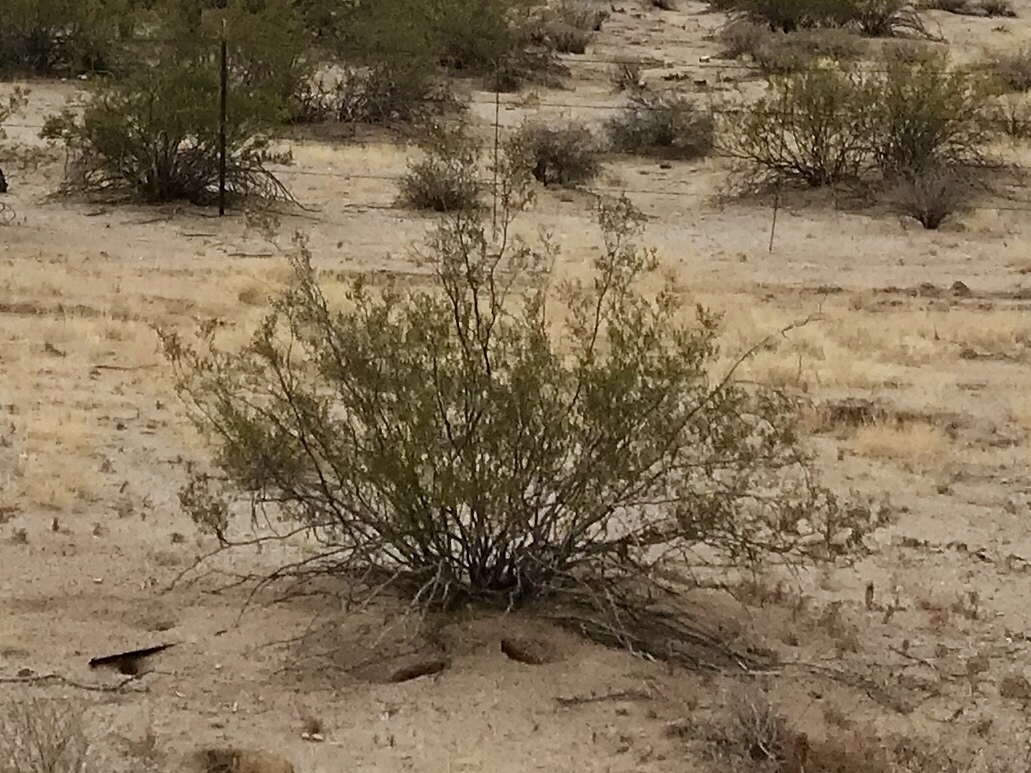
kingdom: Plantae
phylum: Tracheophyta
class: Magnoliopsida
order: Zygophyllales
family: Zygophyllaceae
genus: Larrea
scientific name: Larrea tridentata
